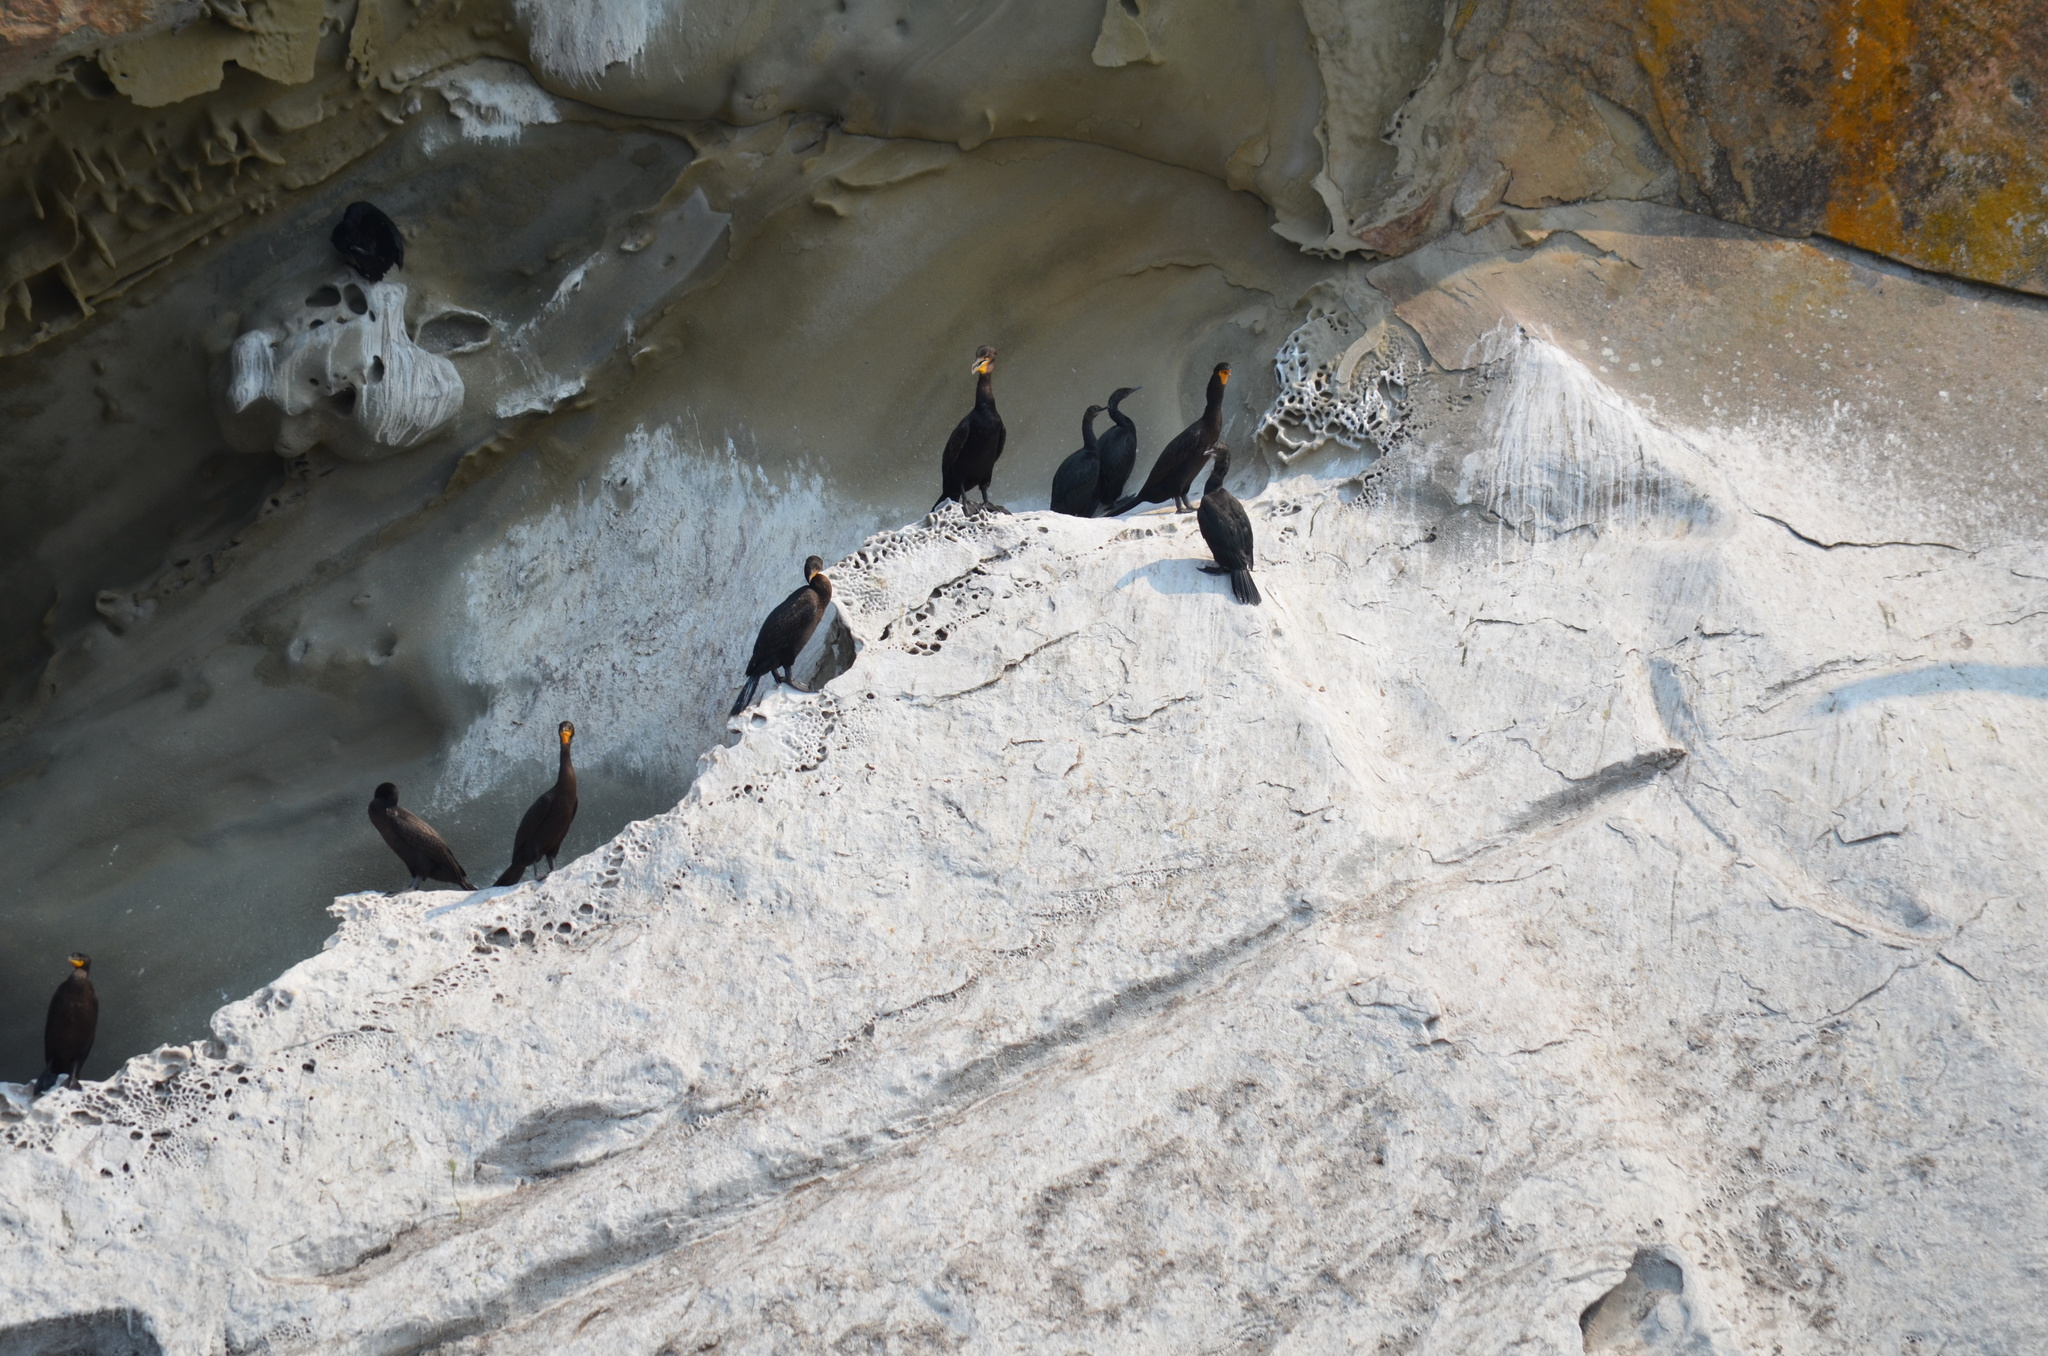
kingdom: Animalia
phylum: Chordata
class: Aves
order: Suliformes
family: Phalacrocoracidae
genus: Phalacrocorax
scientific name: Phalacrocorax auritus
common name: Double-crested cormorant
